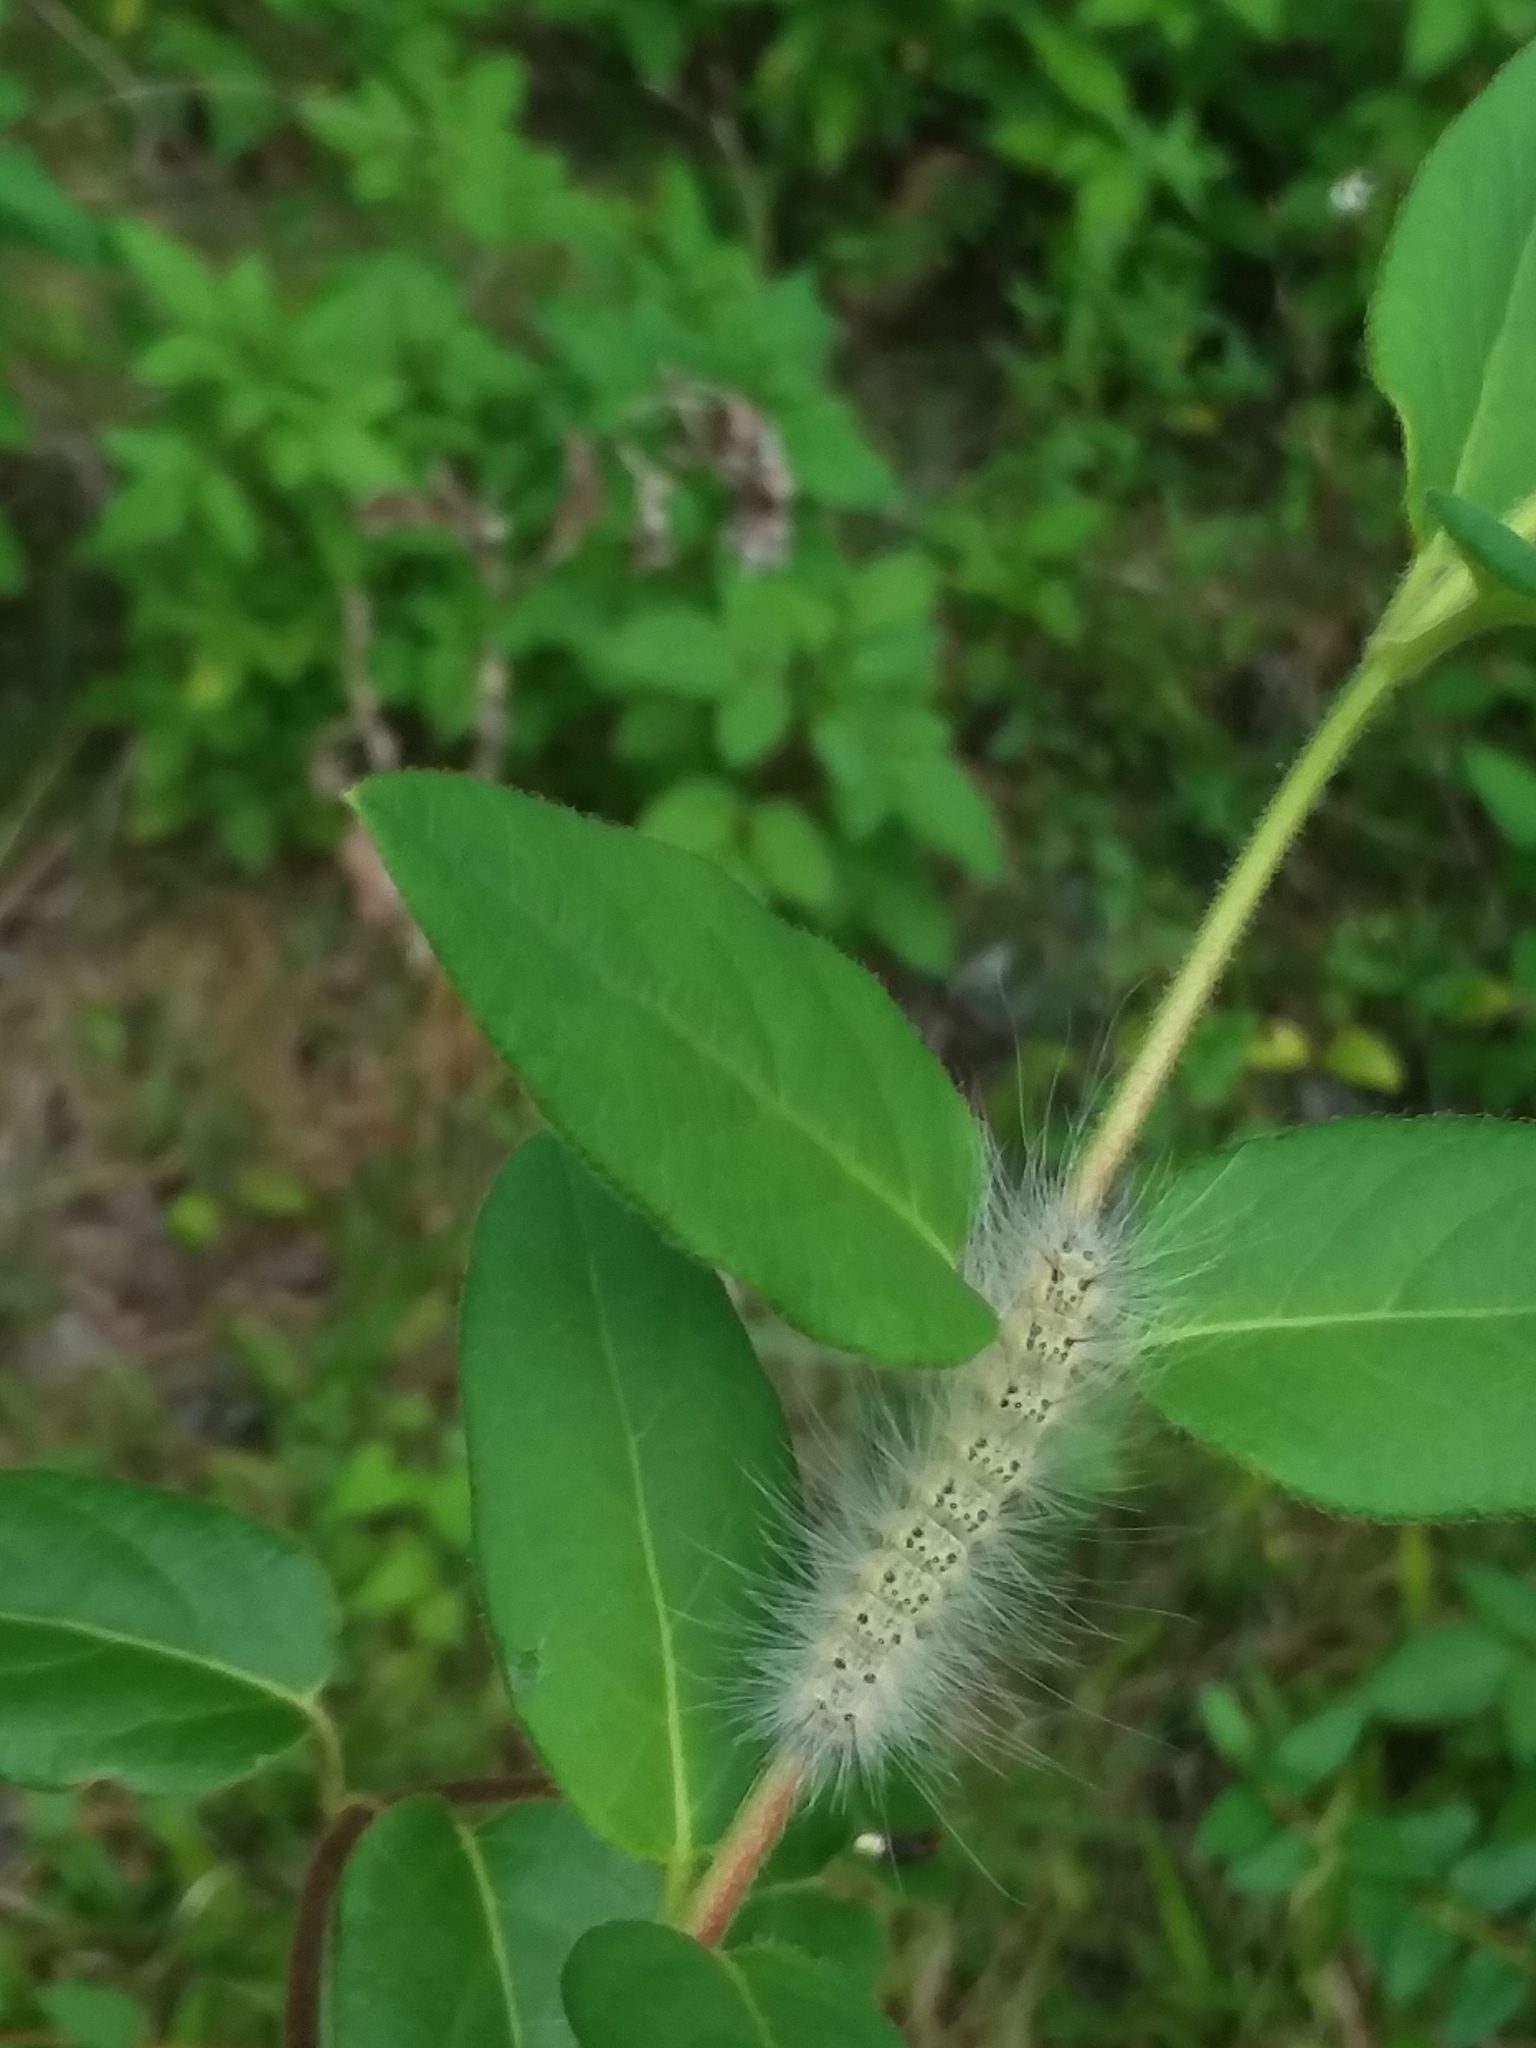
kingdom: Animalia
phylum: Arthropoda
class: Insecta
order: Lepidoptera
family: Erebidae
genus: Hyphantria
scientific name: Hyphantria cunea
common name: American white moth
